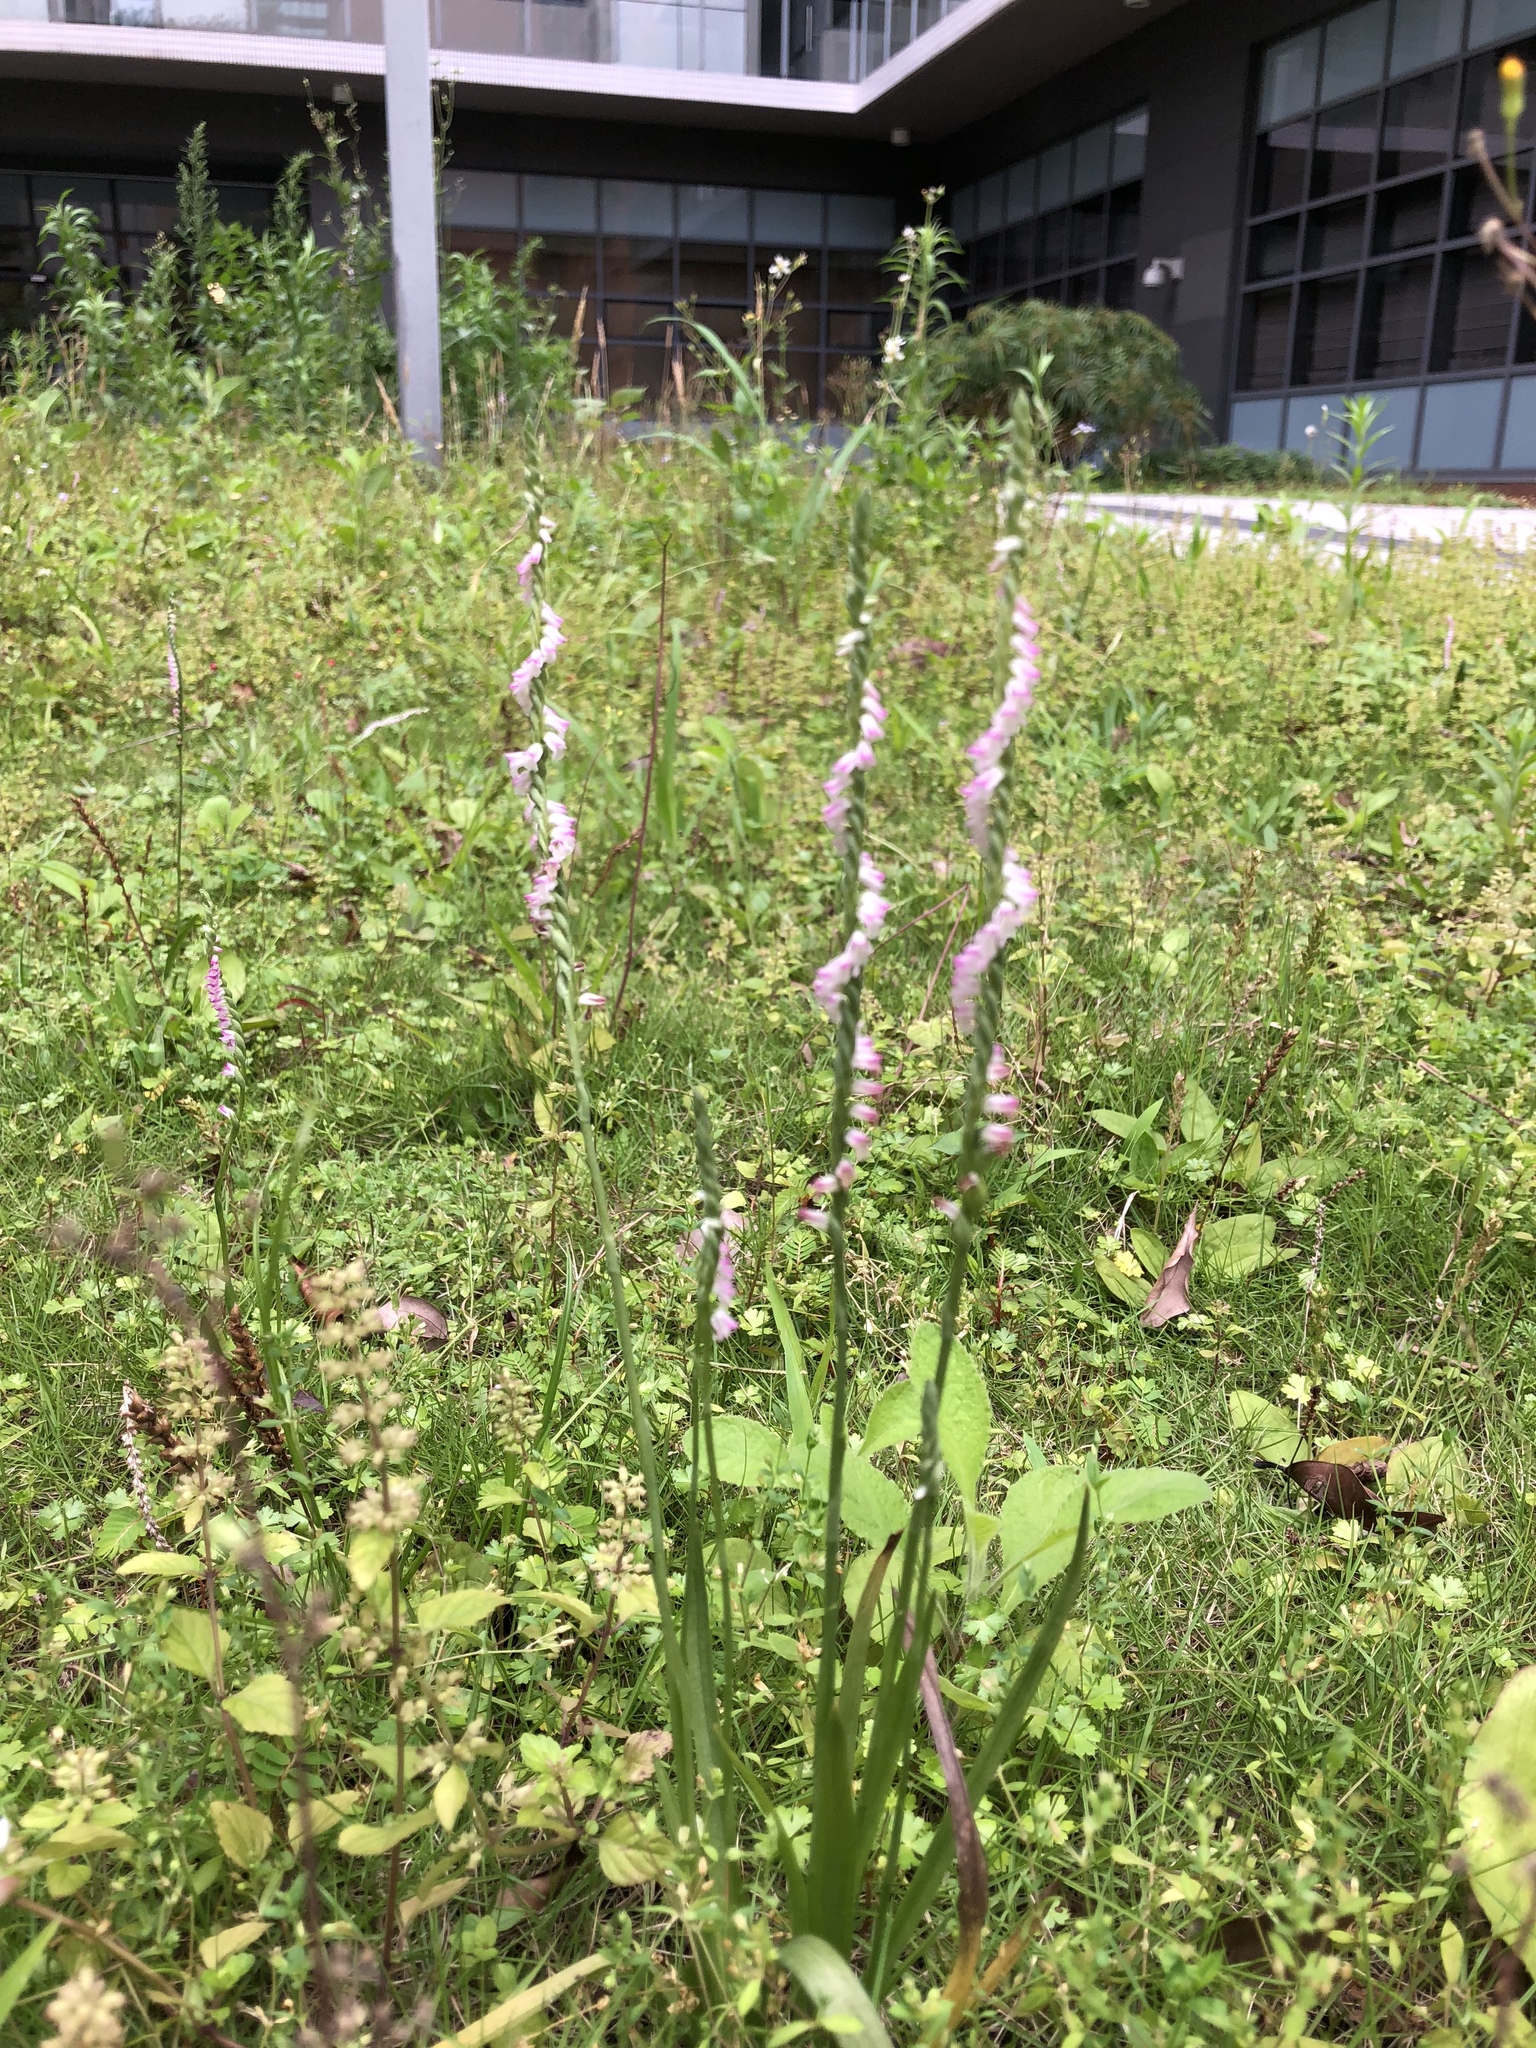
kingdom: Plantae
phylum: Tracheophyta
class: Liliopsida
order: Asparagales
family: Orchidaceae
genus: Spiranthes
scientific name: Spiranthes sinensis
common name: Chinese spiranthes
